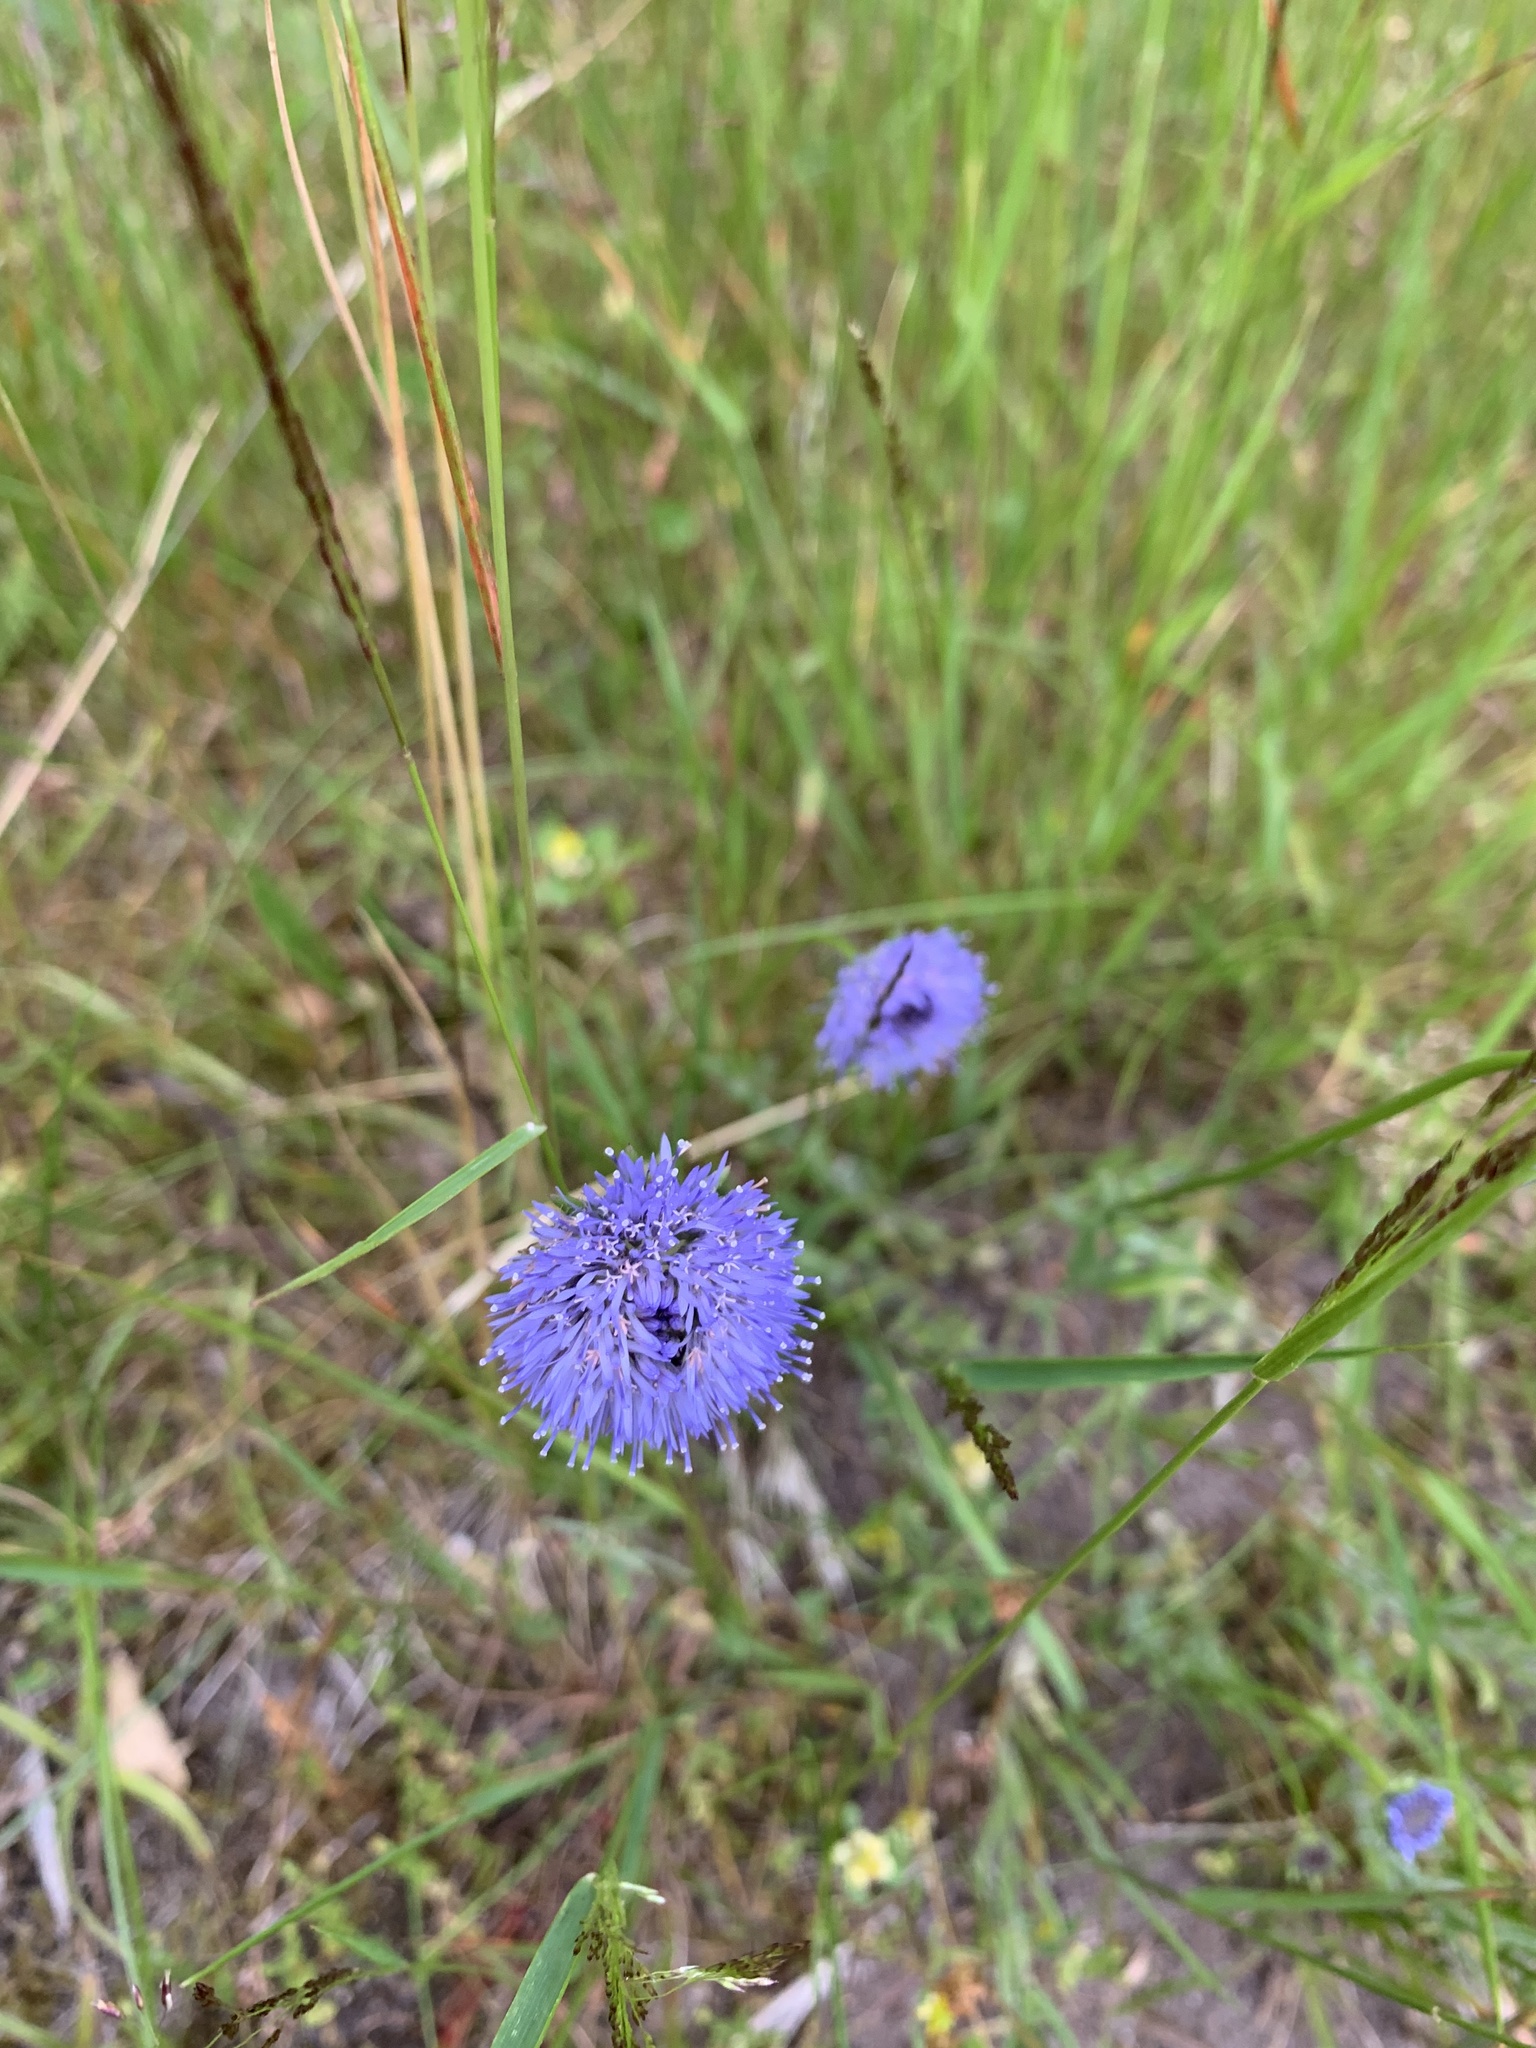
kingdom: Plantae
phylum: Tracheophyta
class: Magnoliopsida
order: Asterales
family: Campanulaceae
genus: Jasione
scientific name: Jasione montana
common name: Sheep's-bit
